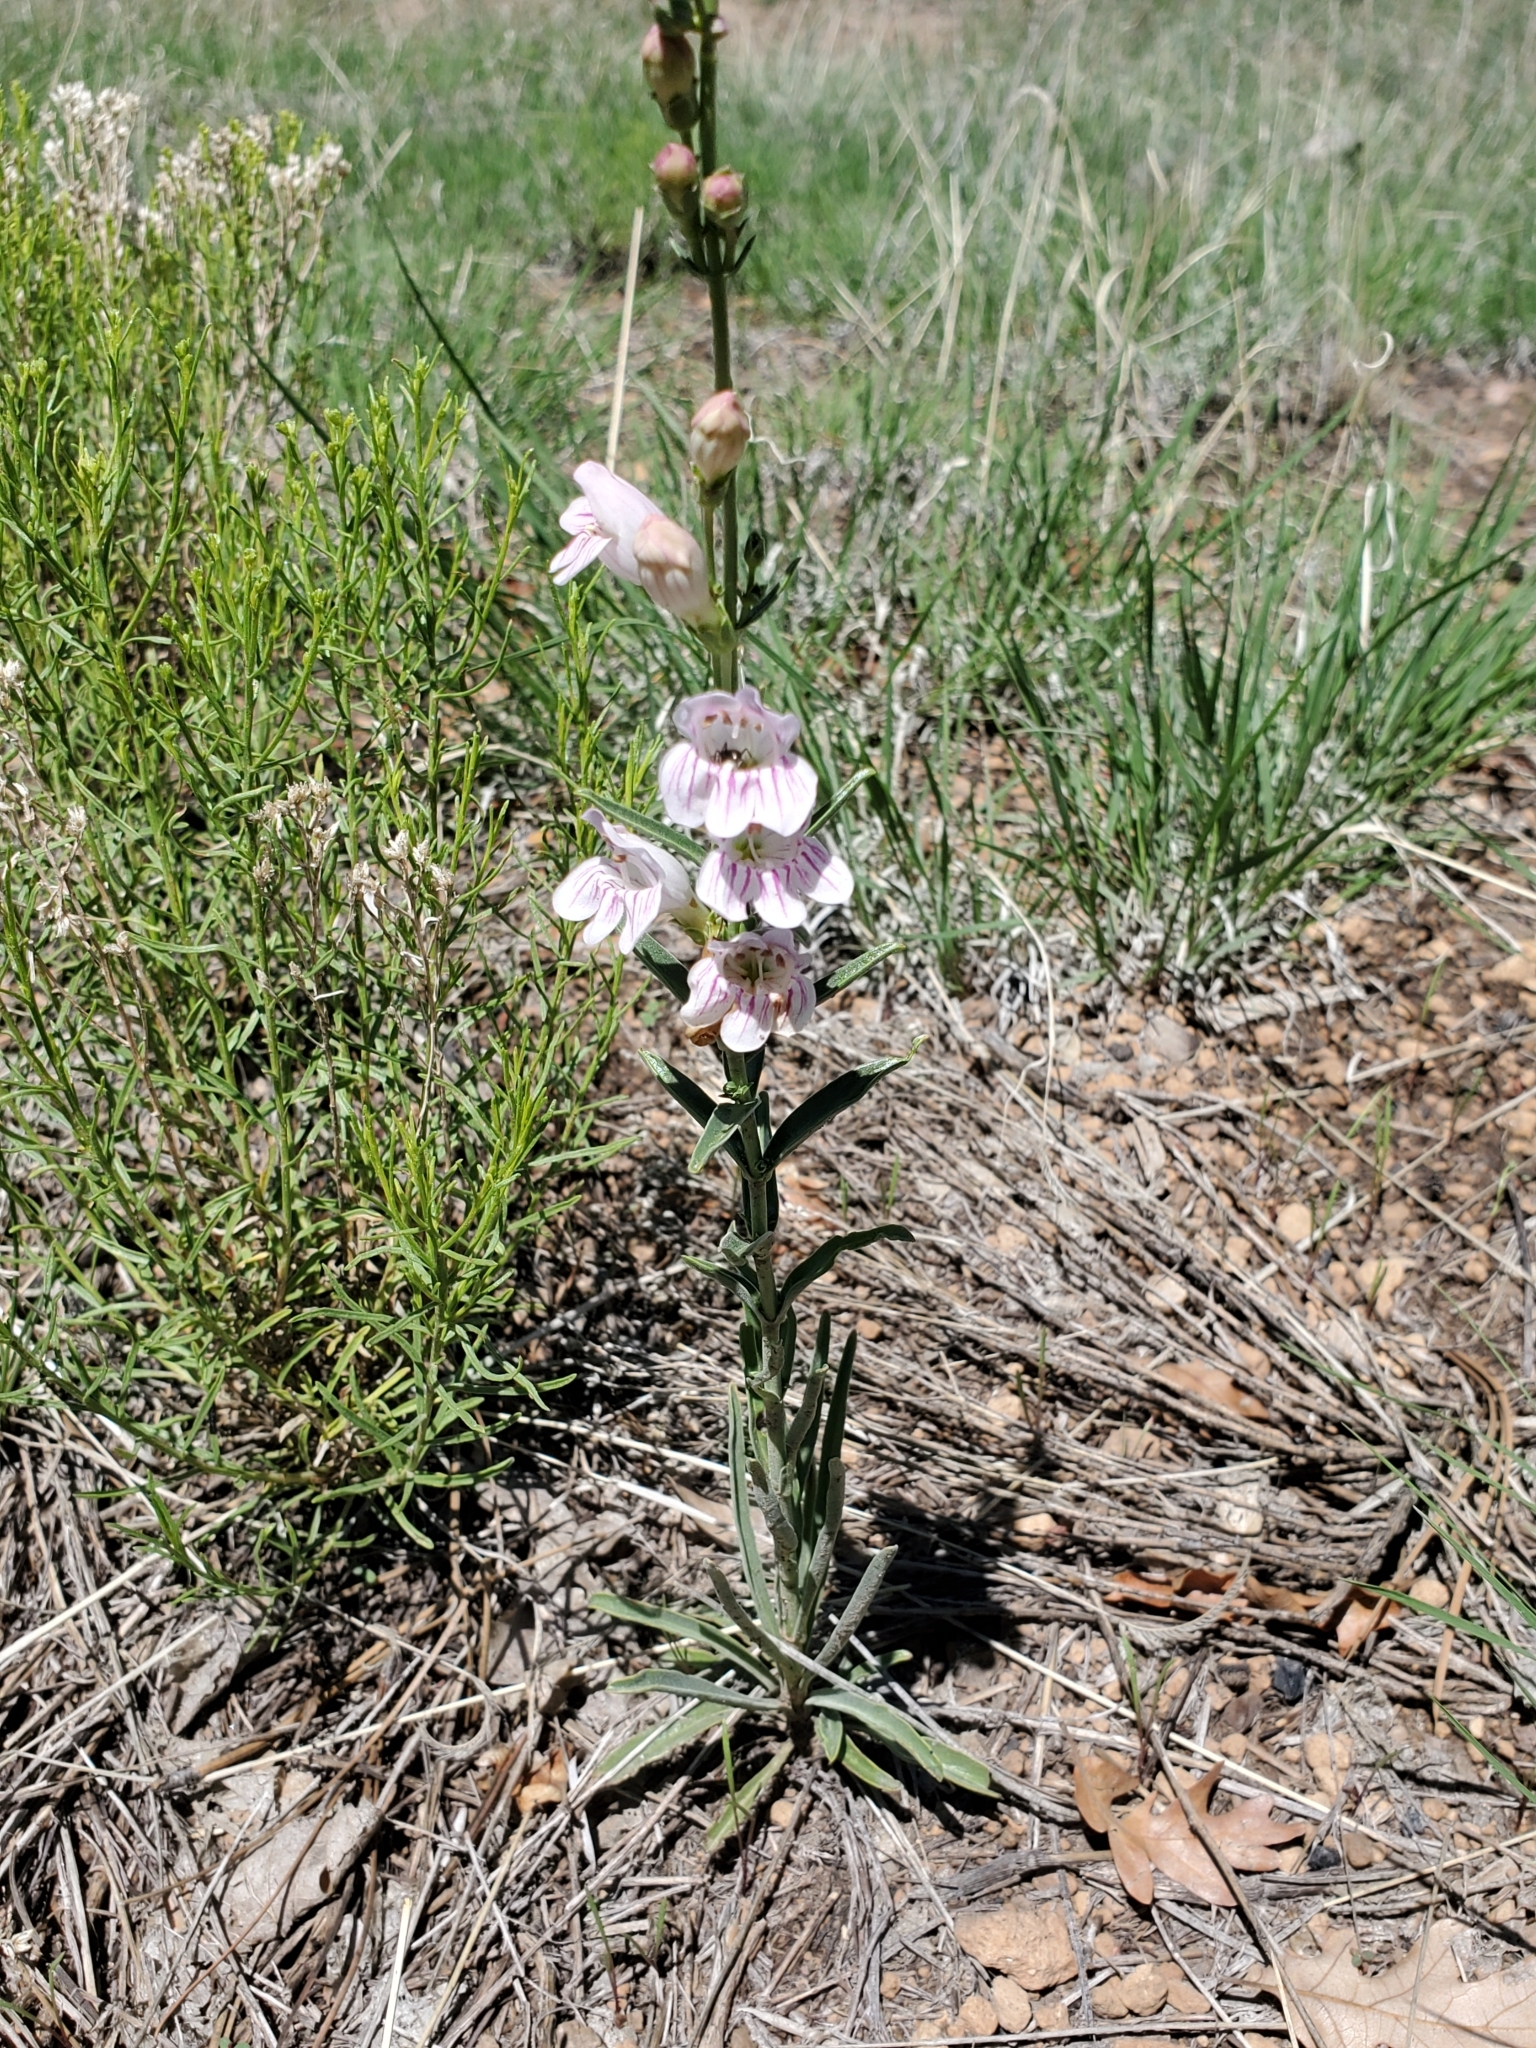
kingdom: Plantae
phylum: Tracheophyta
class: Magnoliopsida
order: Lamiales
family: Plantaginaceae
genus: Penstemon
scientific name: Penstemon virgatus
